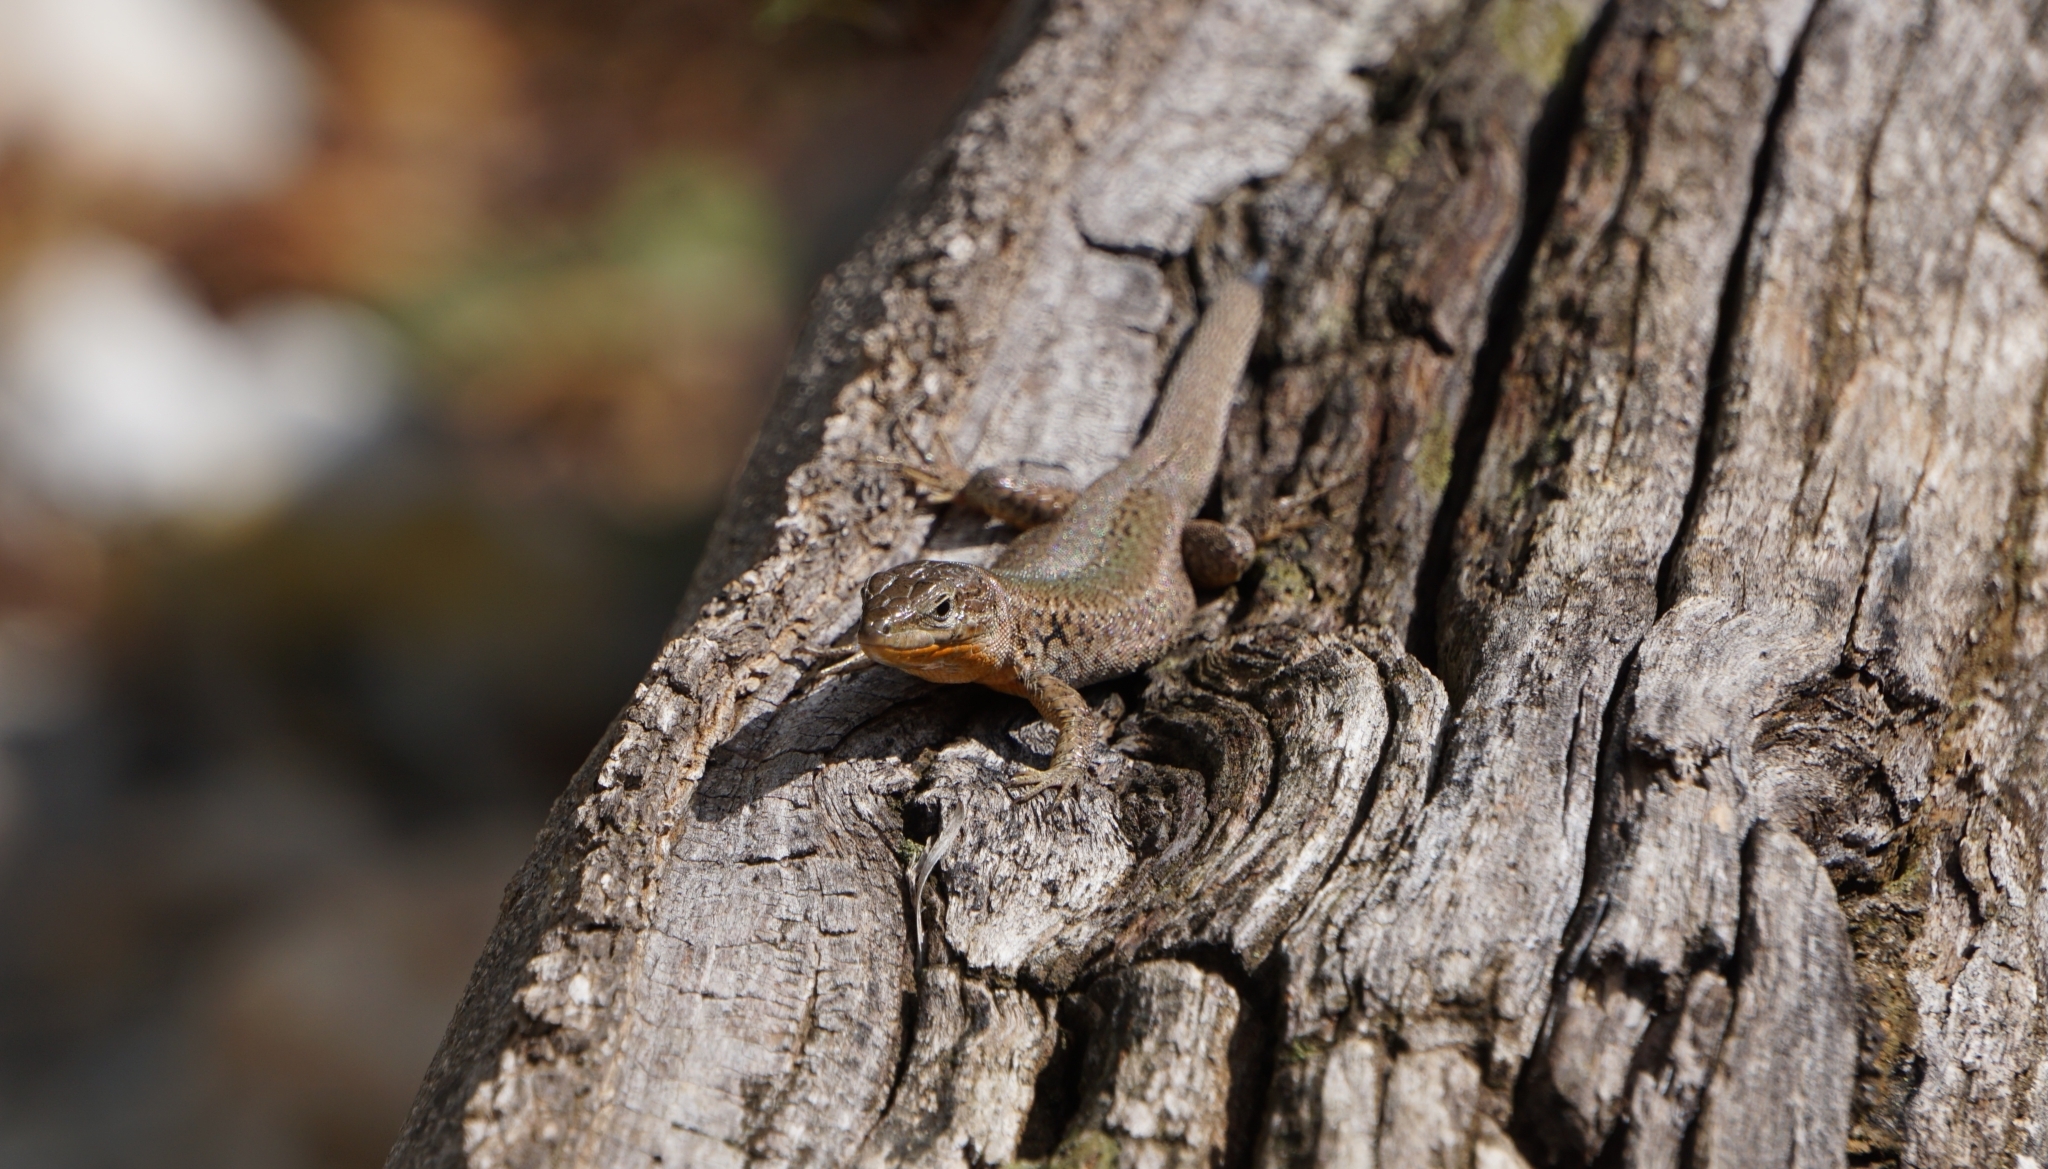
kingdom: Animalia
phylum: Chordata
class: Squamata
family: Lacertidae
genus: Podarcis
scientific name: Podarcis melisellensis
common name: Dalmatian wall lizard
